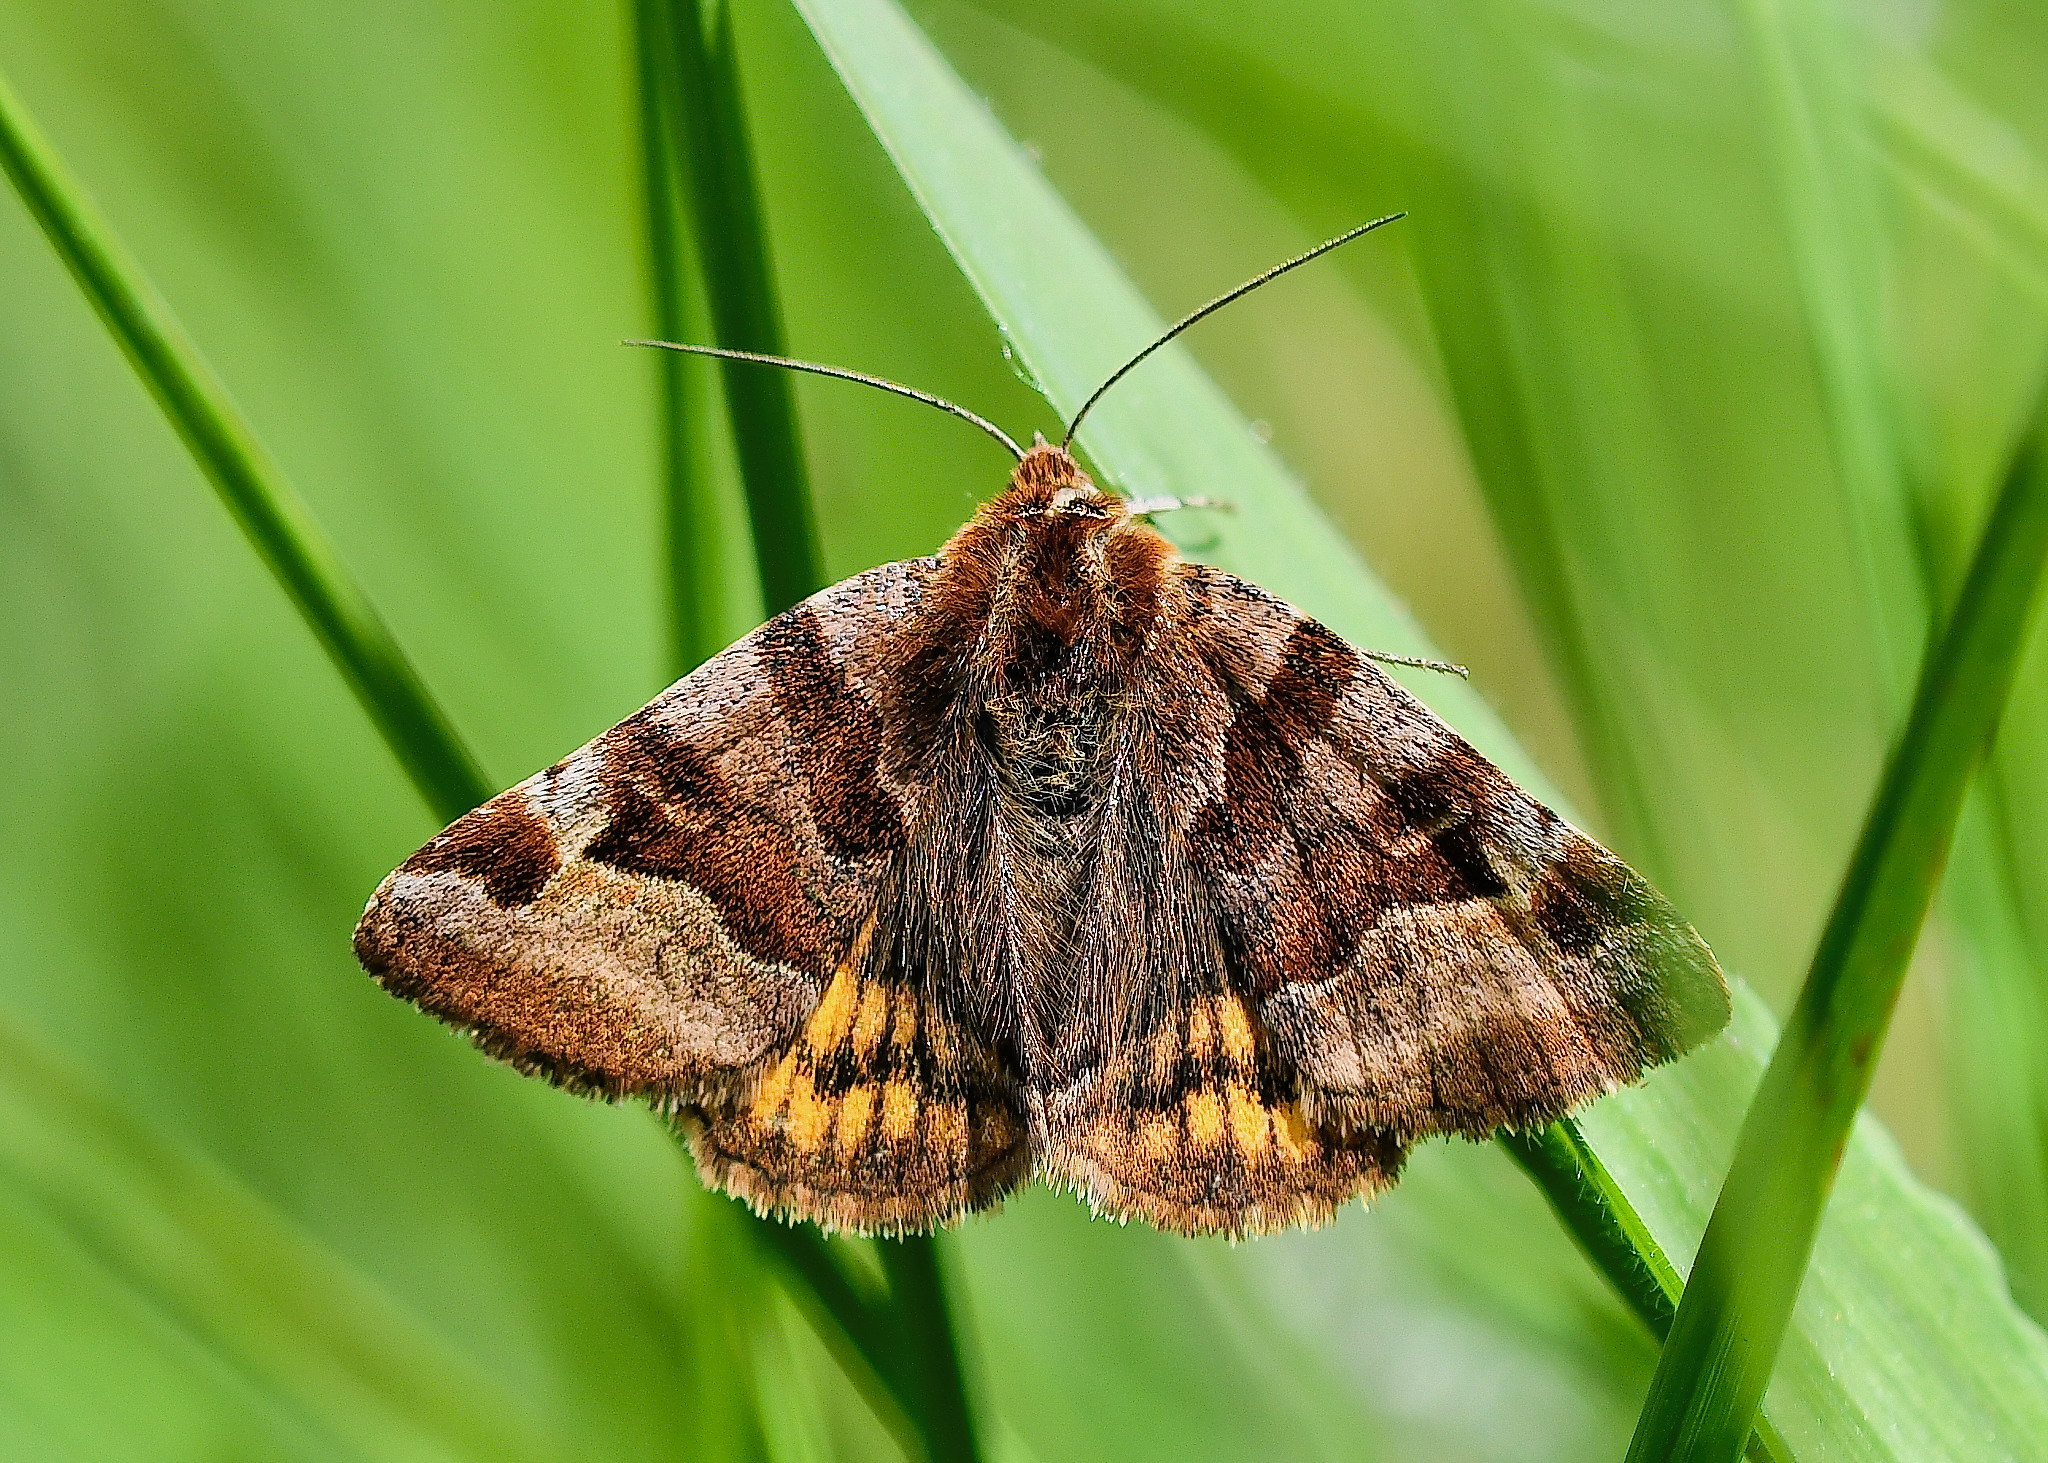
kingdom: Animalia
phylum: Arthropoda
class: Insecta
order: Lepidoptera
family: Erebidae
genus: Euclidia
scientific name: Euclidia glyphica
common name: Burnet companion
